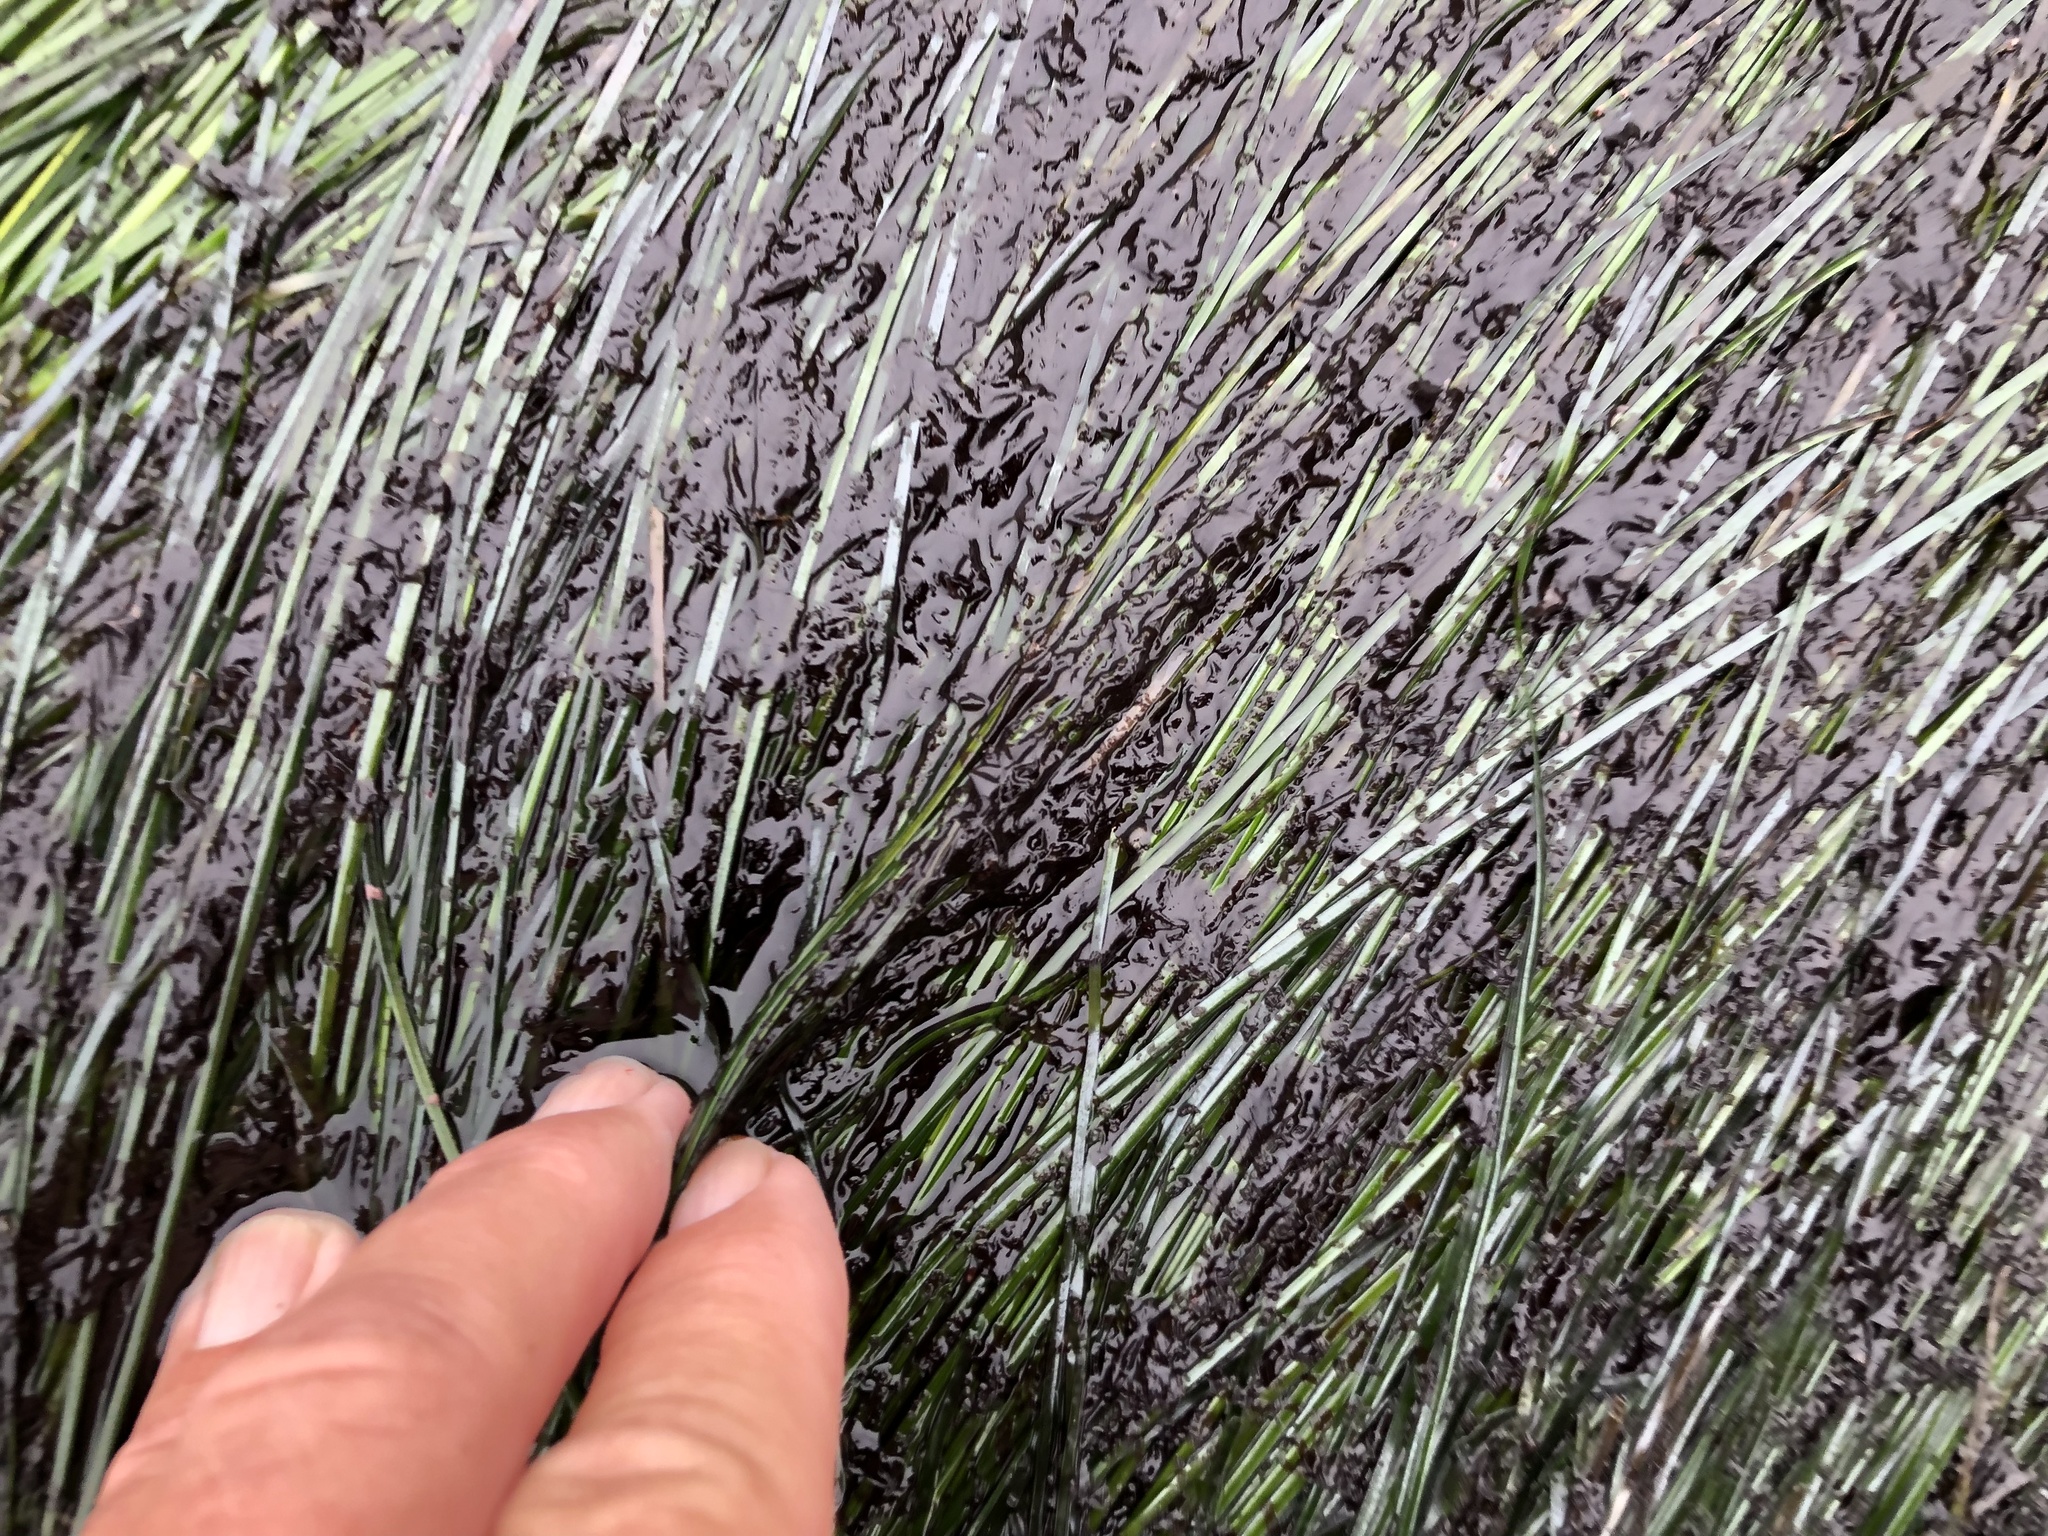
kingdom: Plantae
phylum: Rhodophyta
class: Compsopogonophyceae
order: Erythropeltidales
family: Erythrotrichiaceae
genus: Smithora
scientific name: Smithora naiadum
